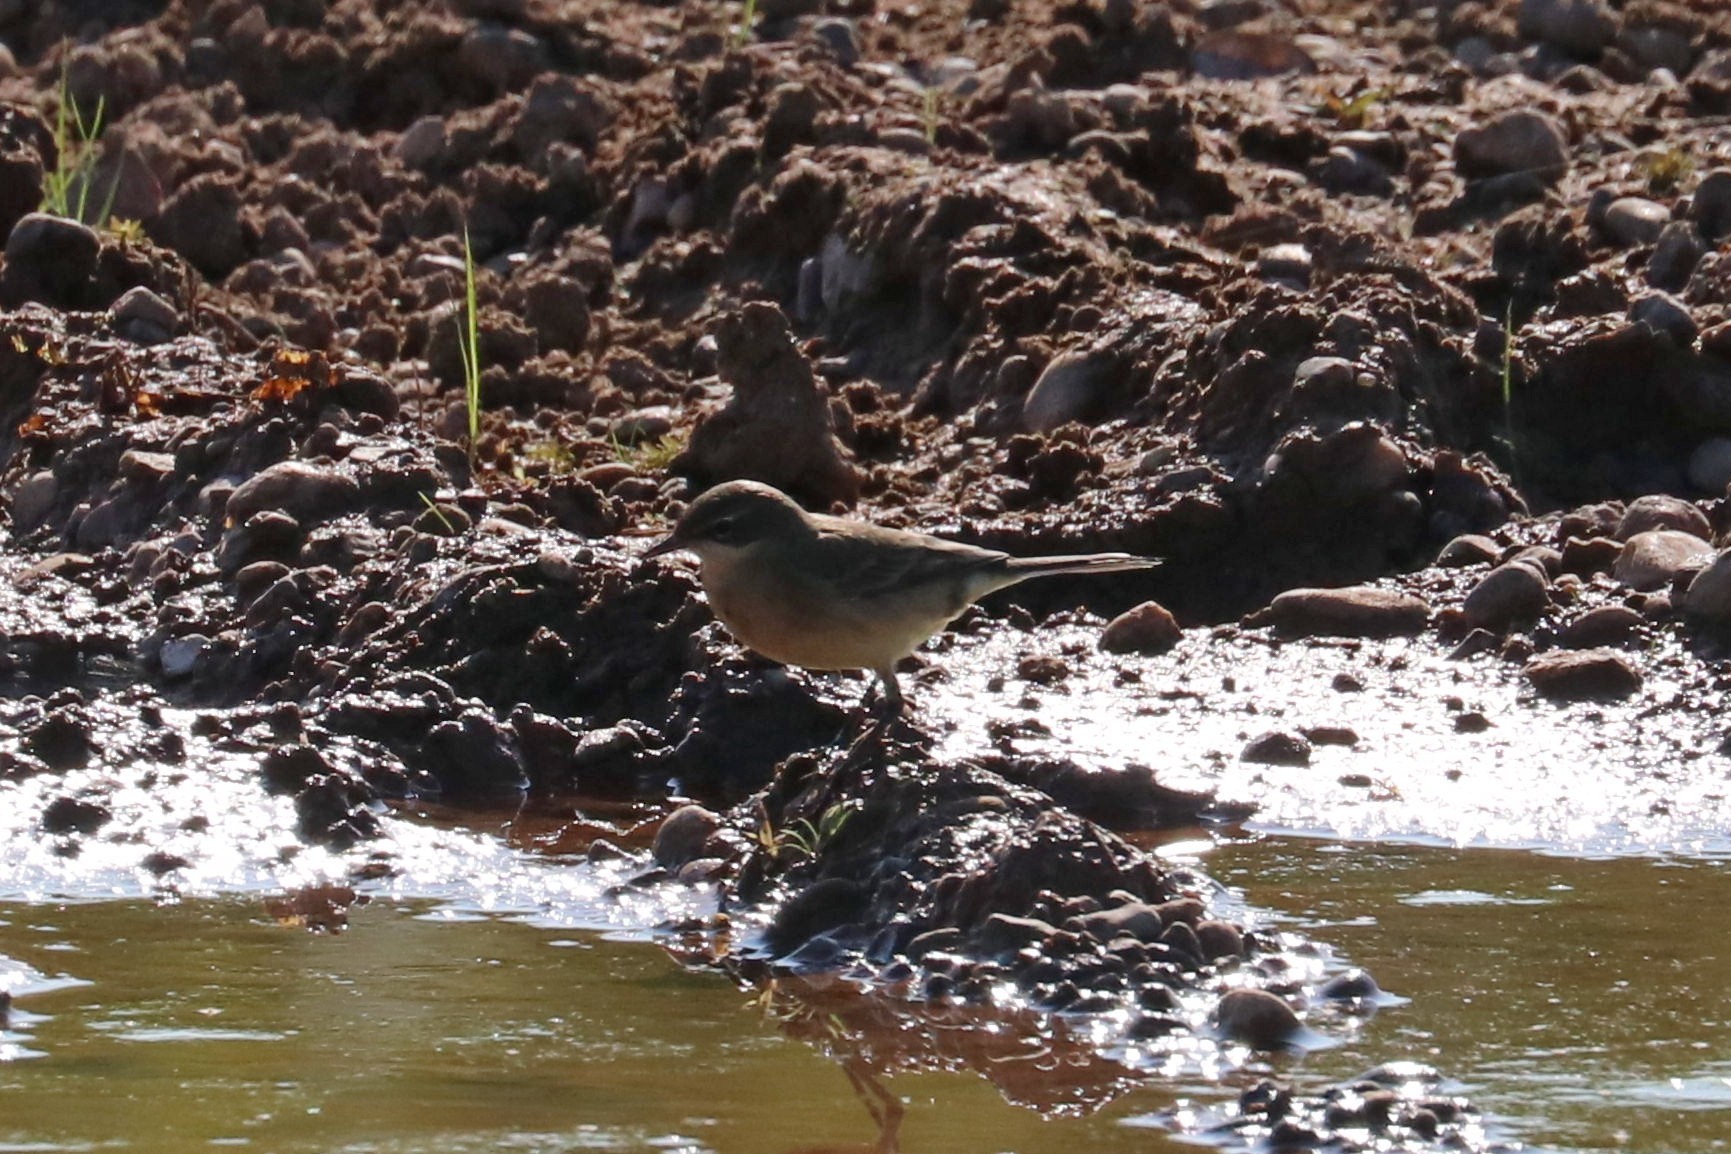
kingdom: Animalia
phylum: Chordata
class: Aves
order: Passeriformes
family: Motacillidae
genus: Motacilla
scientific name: Motacilla flava
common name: Western yellow wagtail
